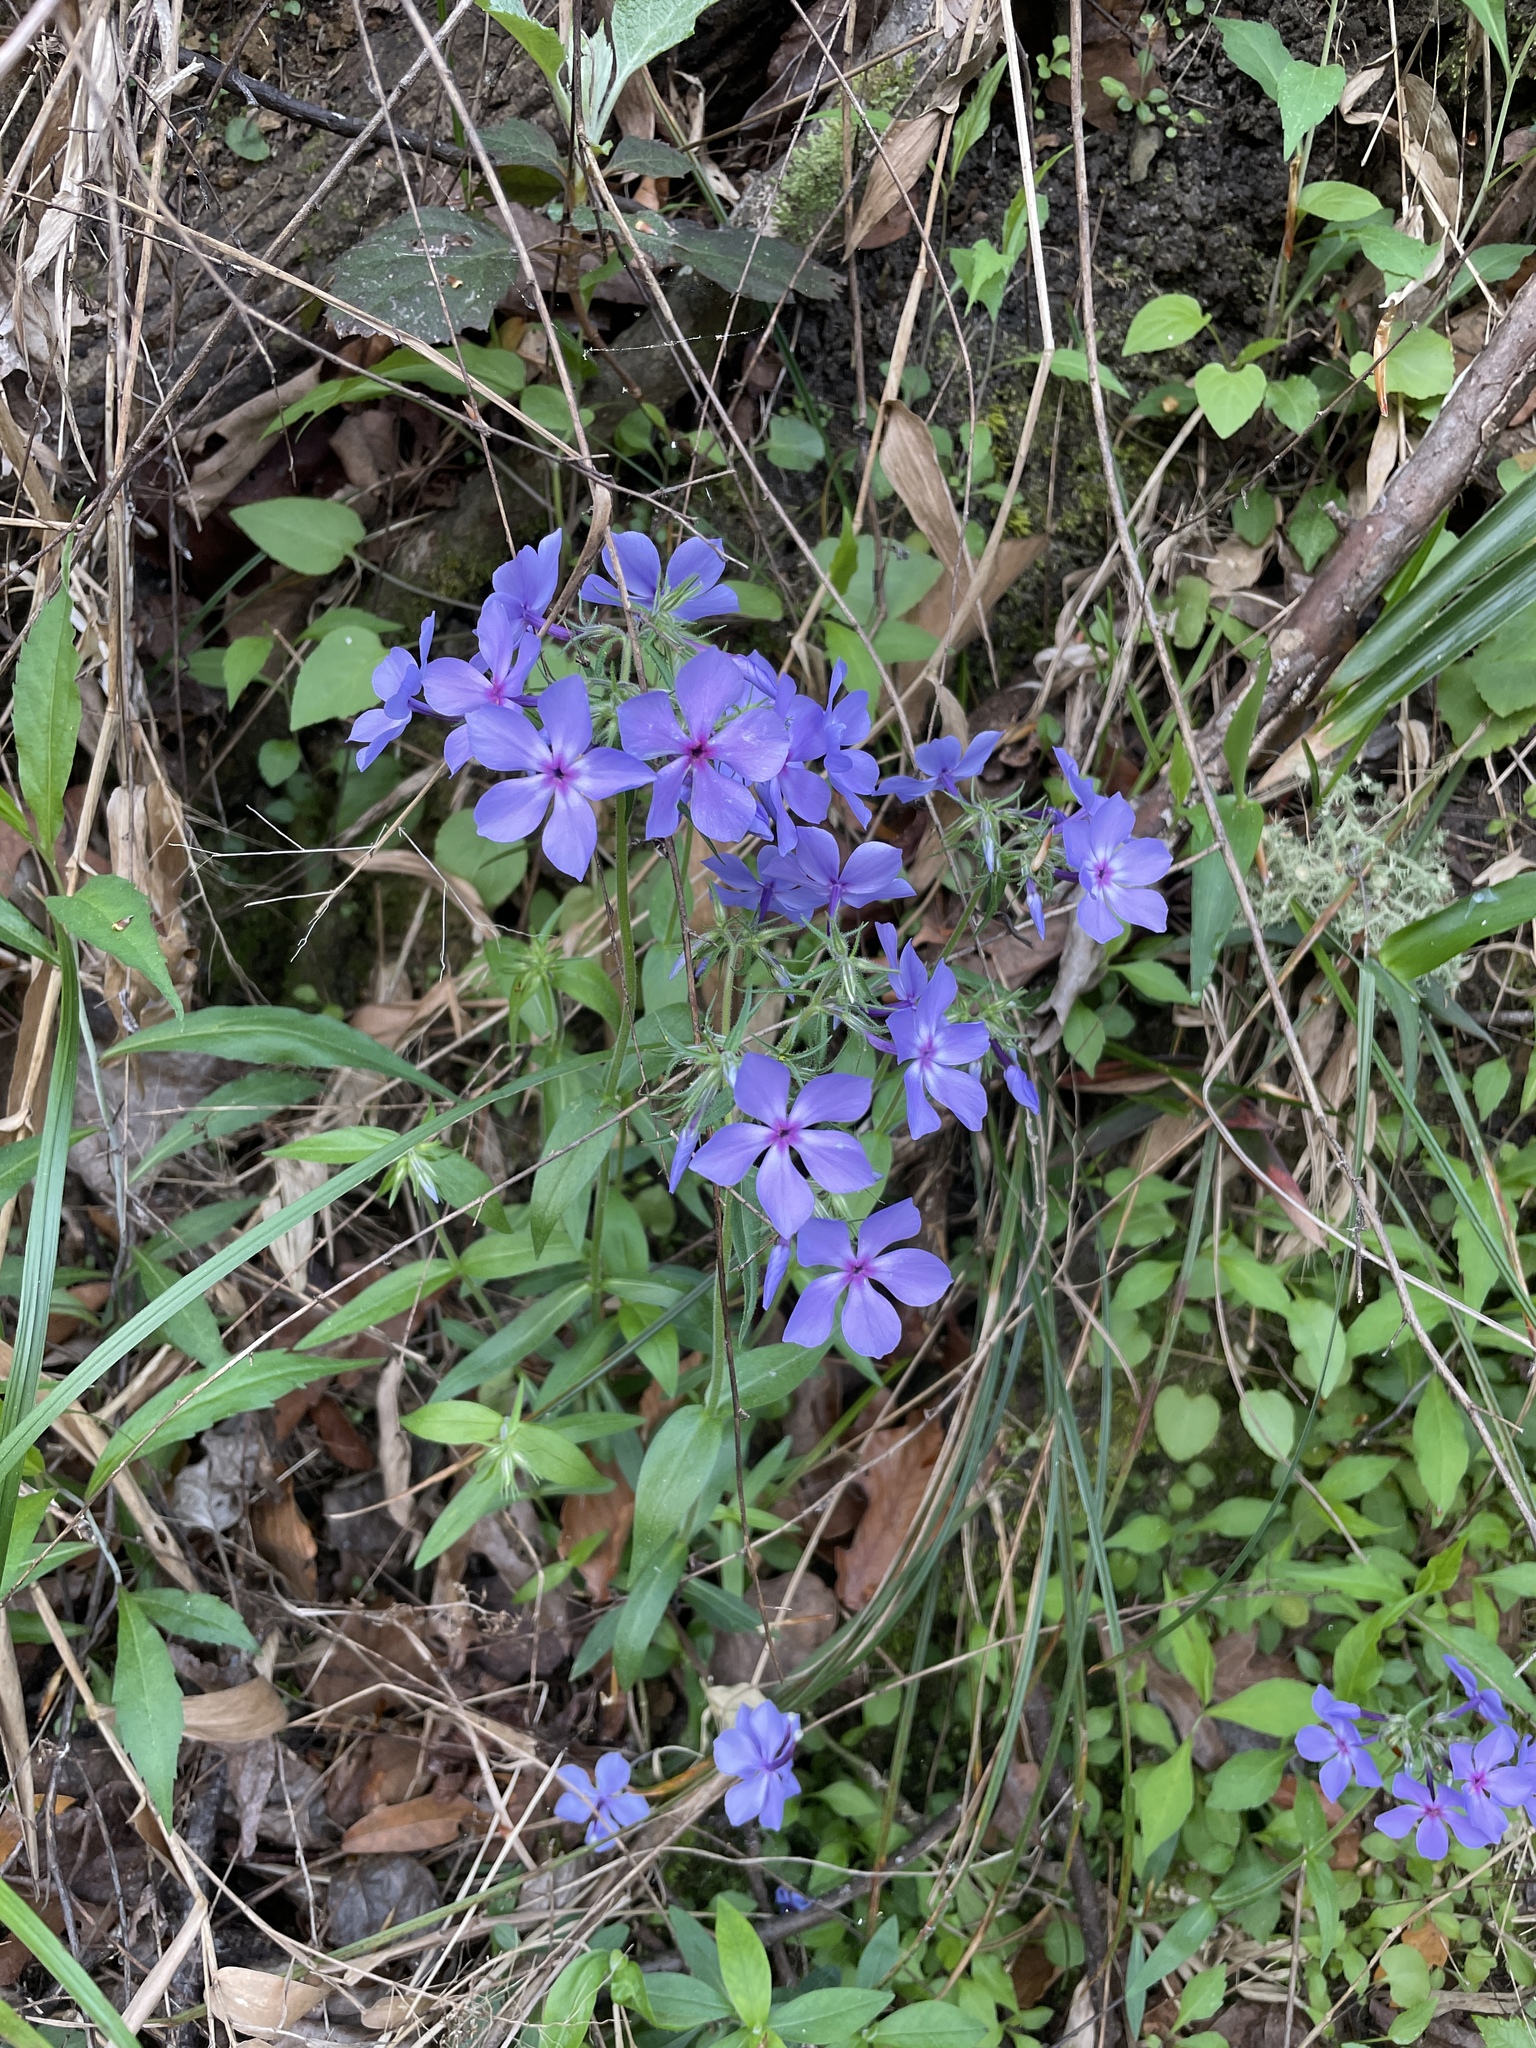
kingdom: Plantae
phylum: Tracheophyta
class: Magnoliopsida
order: Ericales
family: Polemoniaceae
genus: Phlox
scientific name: Phlox divaricata
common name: Blue phlox
